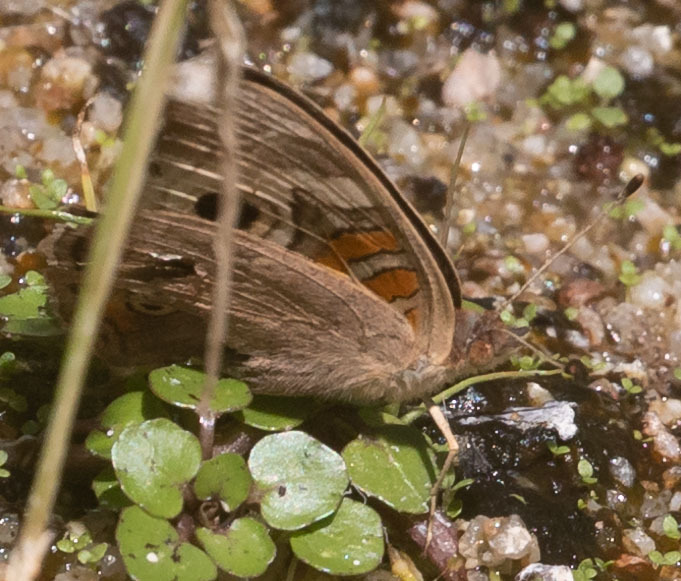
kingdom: Animalia
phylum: Arthropoda
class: Insecta
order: Lepidoptera
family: Nymphalidae
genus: Junonia
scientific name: Junonia grisea
